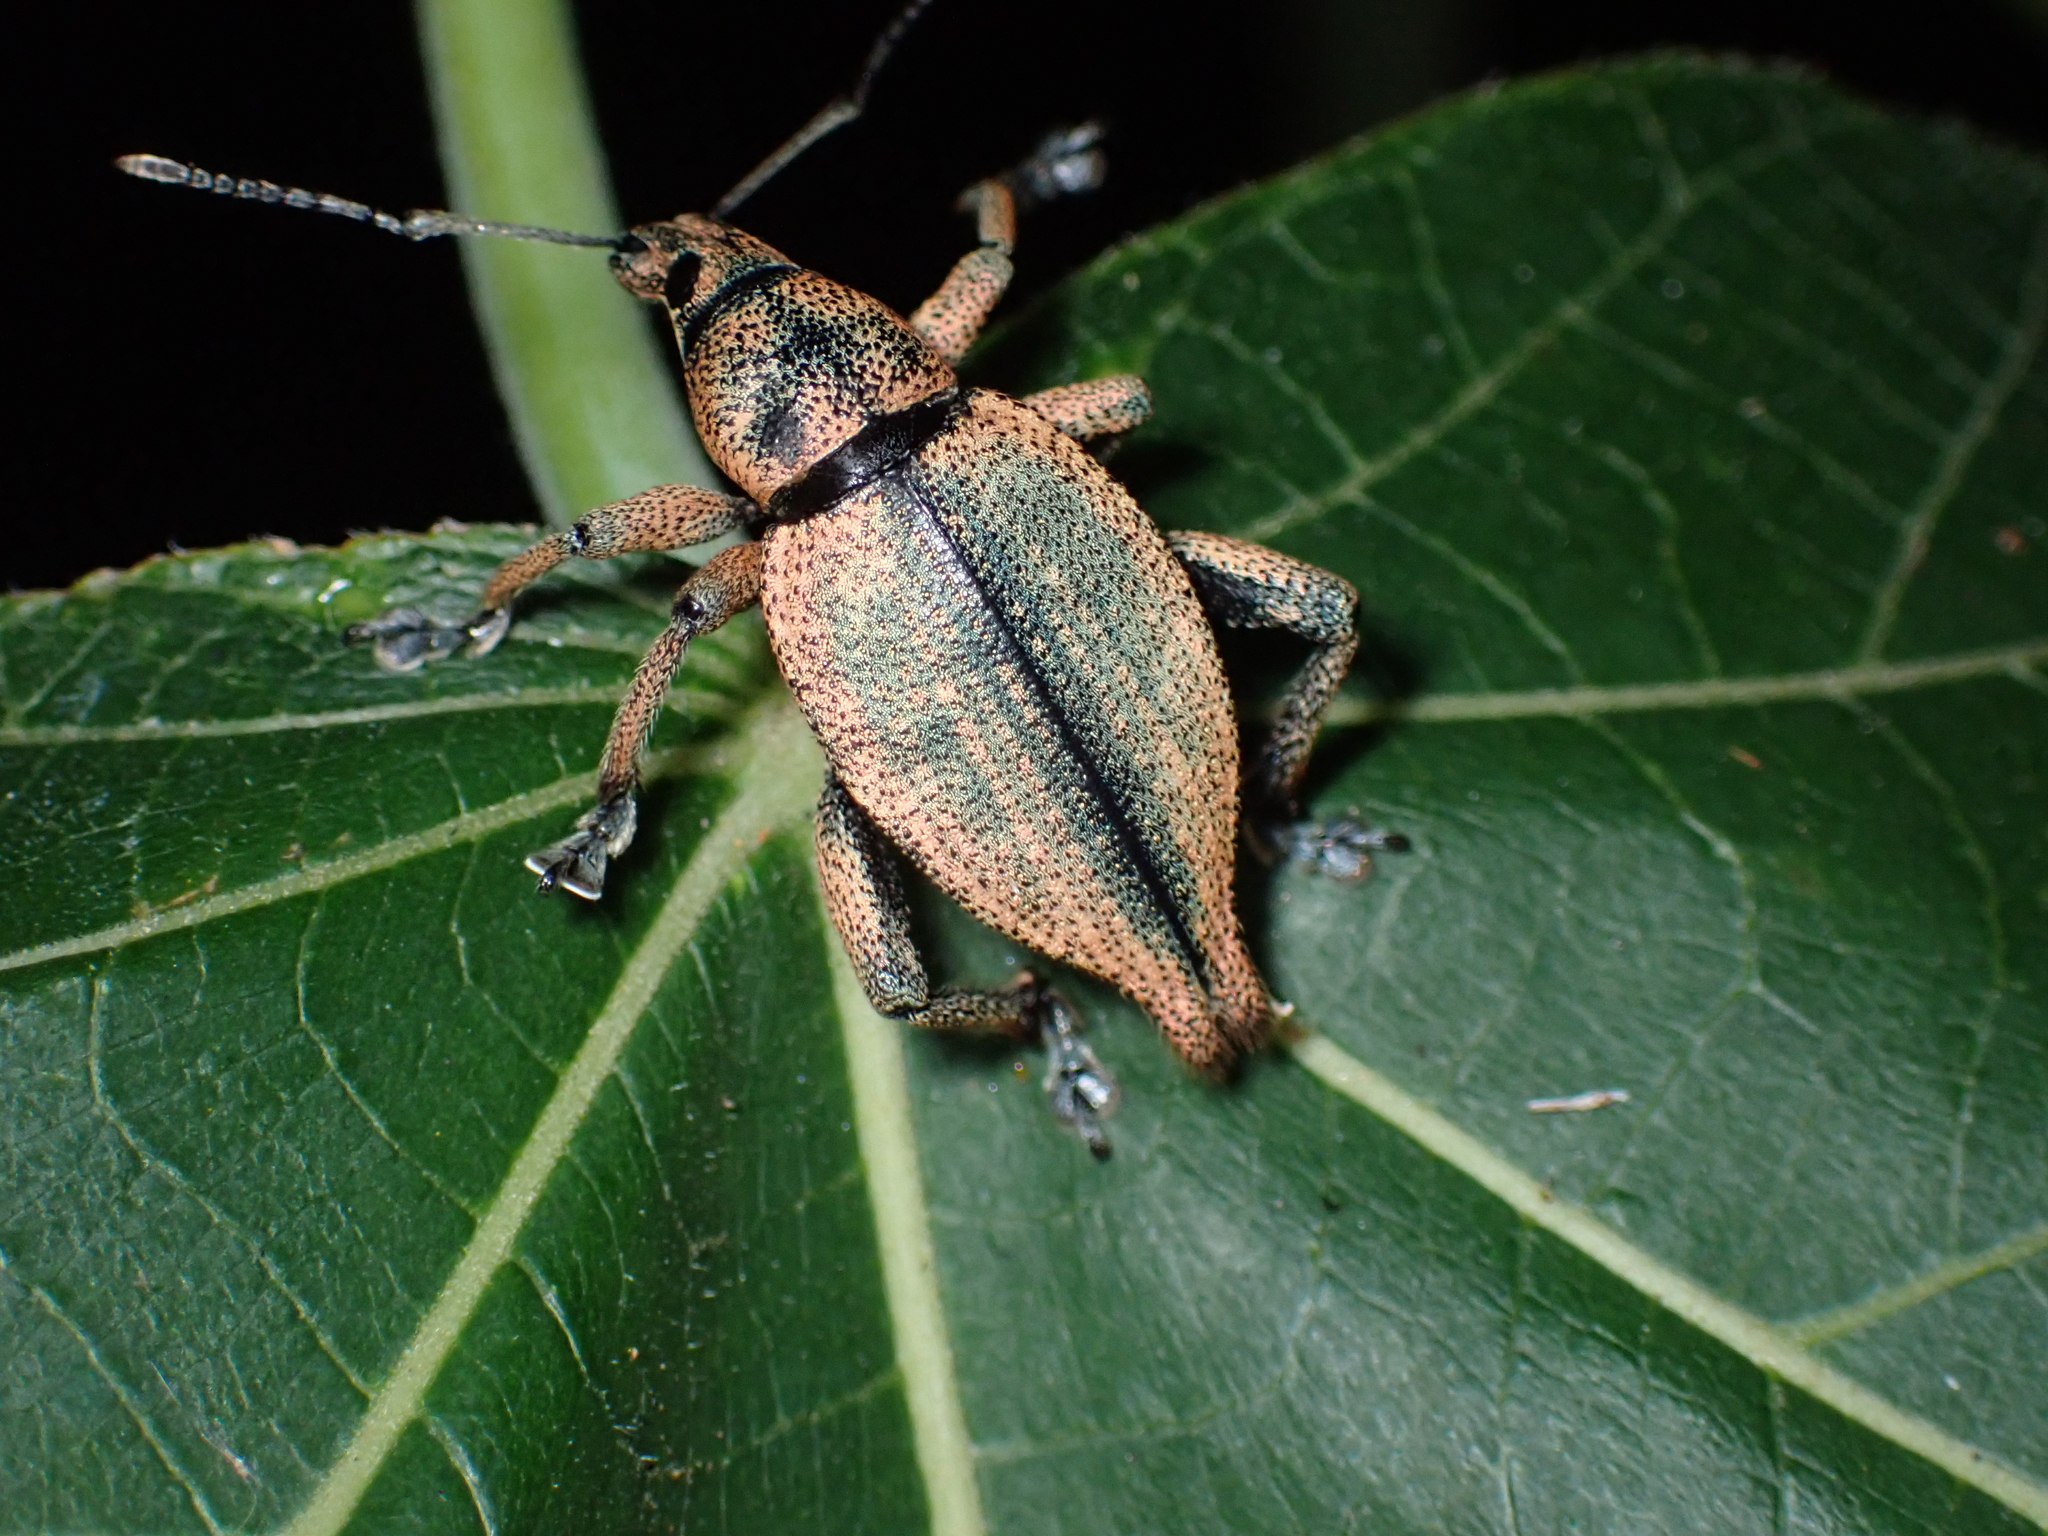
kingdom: Animalia
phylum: Arthropoda
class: Insecta
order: Coleoptera
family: Curculionidae
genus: Elytrurus
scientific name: Elytrurus marginatus
